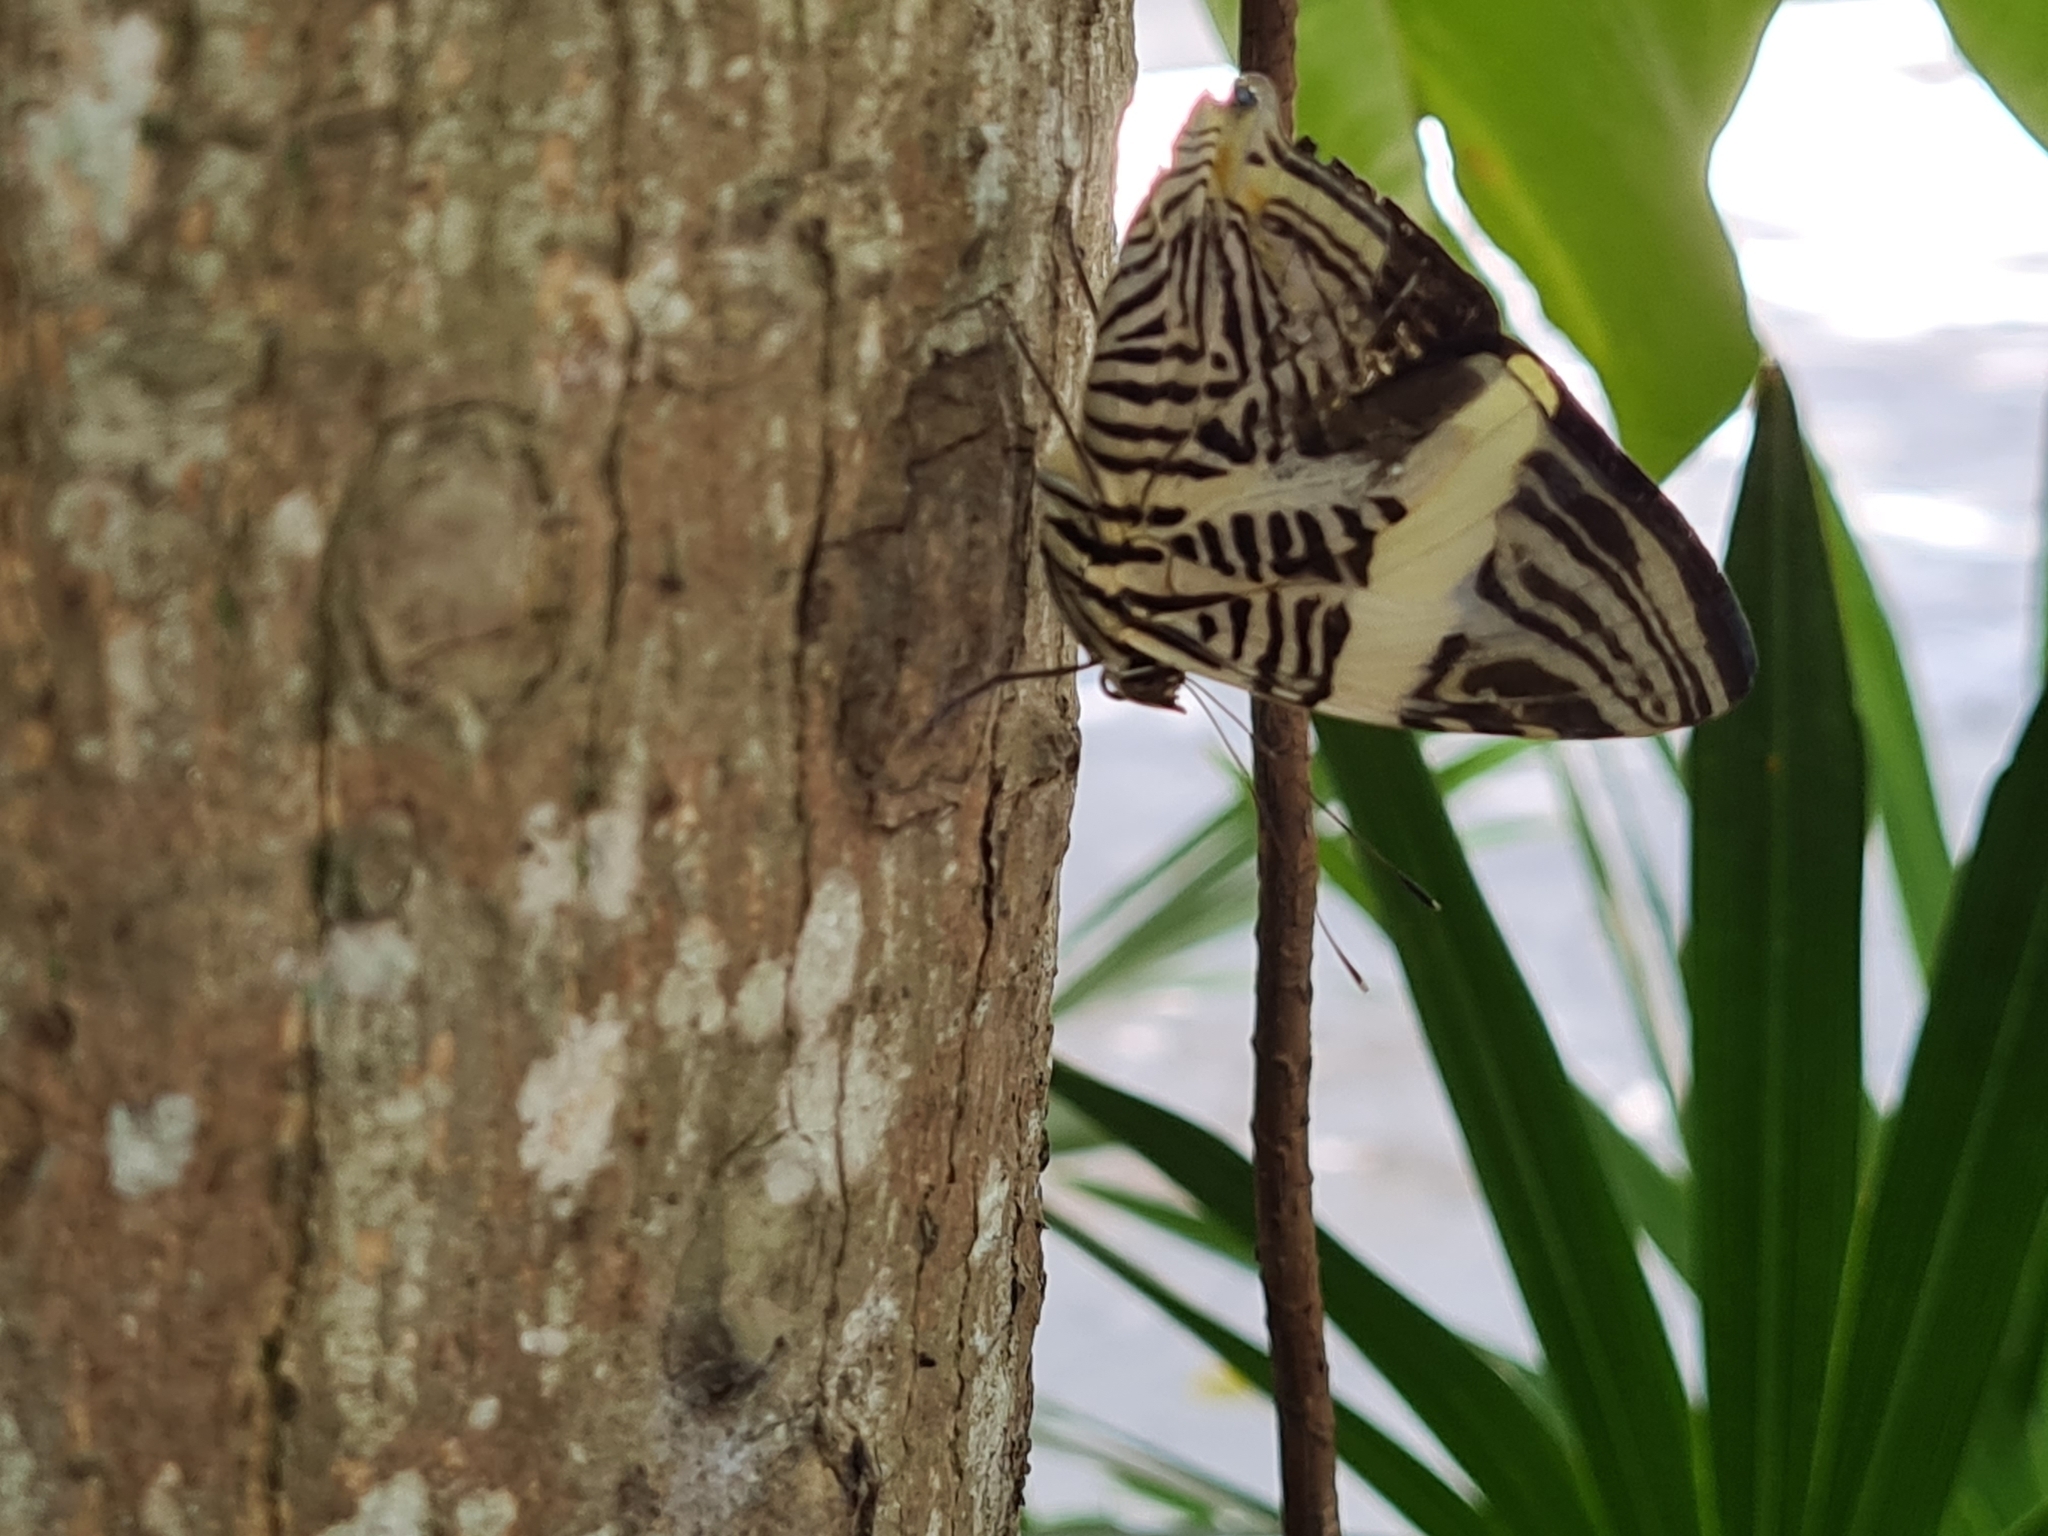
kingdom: Animalia
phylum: Arthropoda
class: Insecta
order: Lepidoptera
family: Nymphalidae
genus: Colobura
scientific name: Colobura dirce
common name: Dirce beauty
